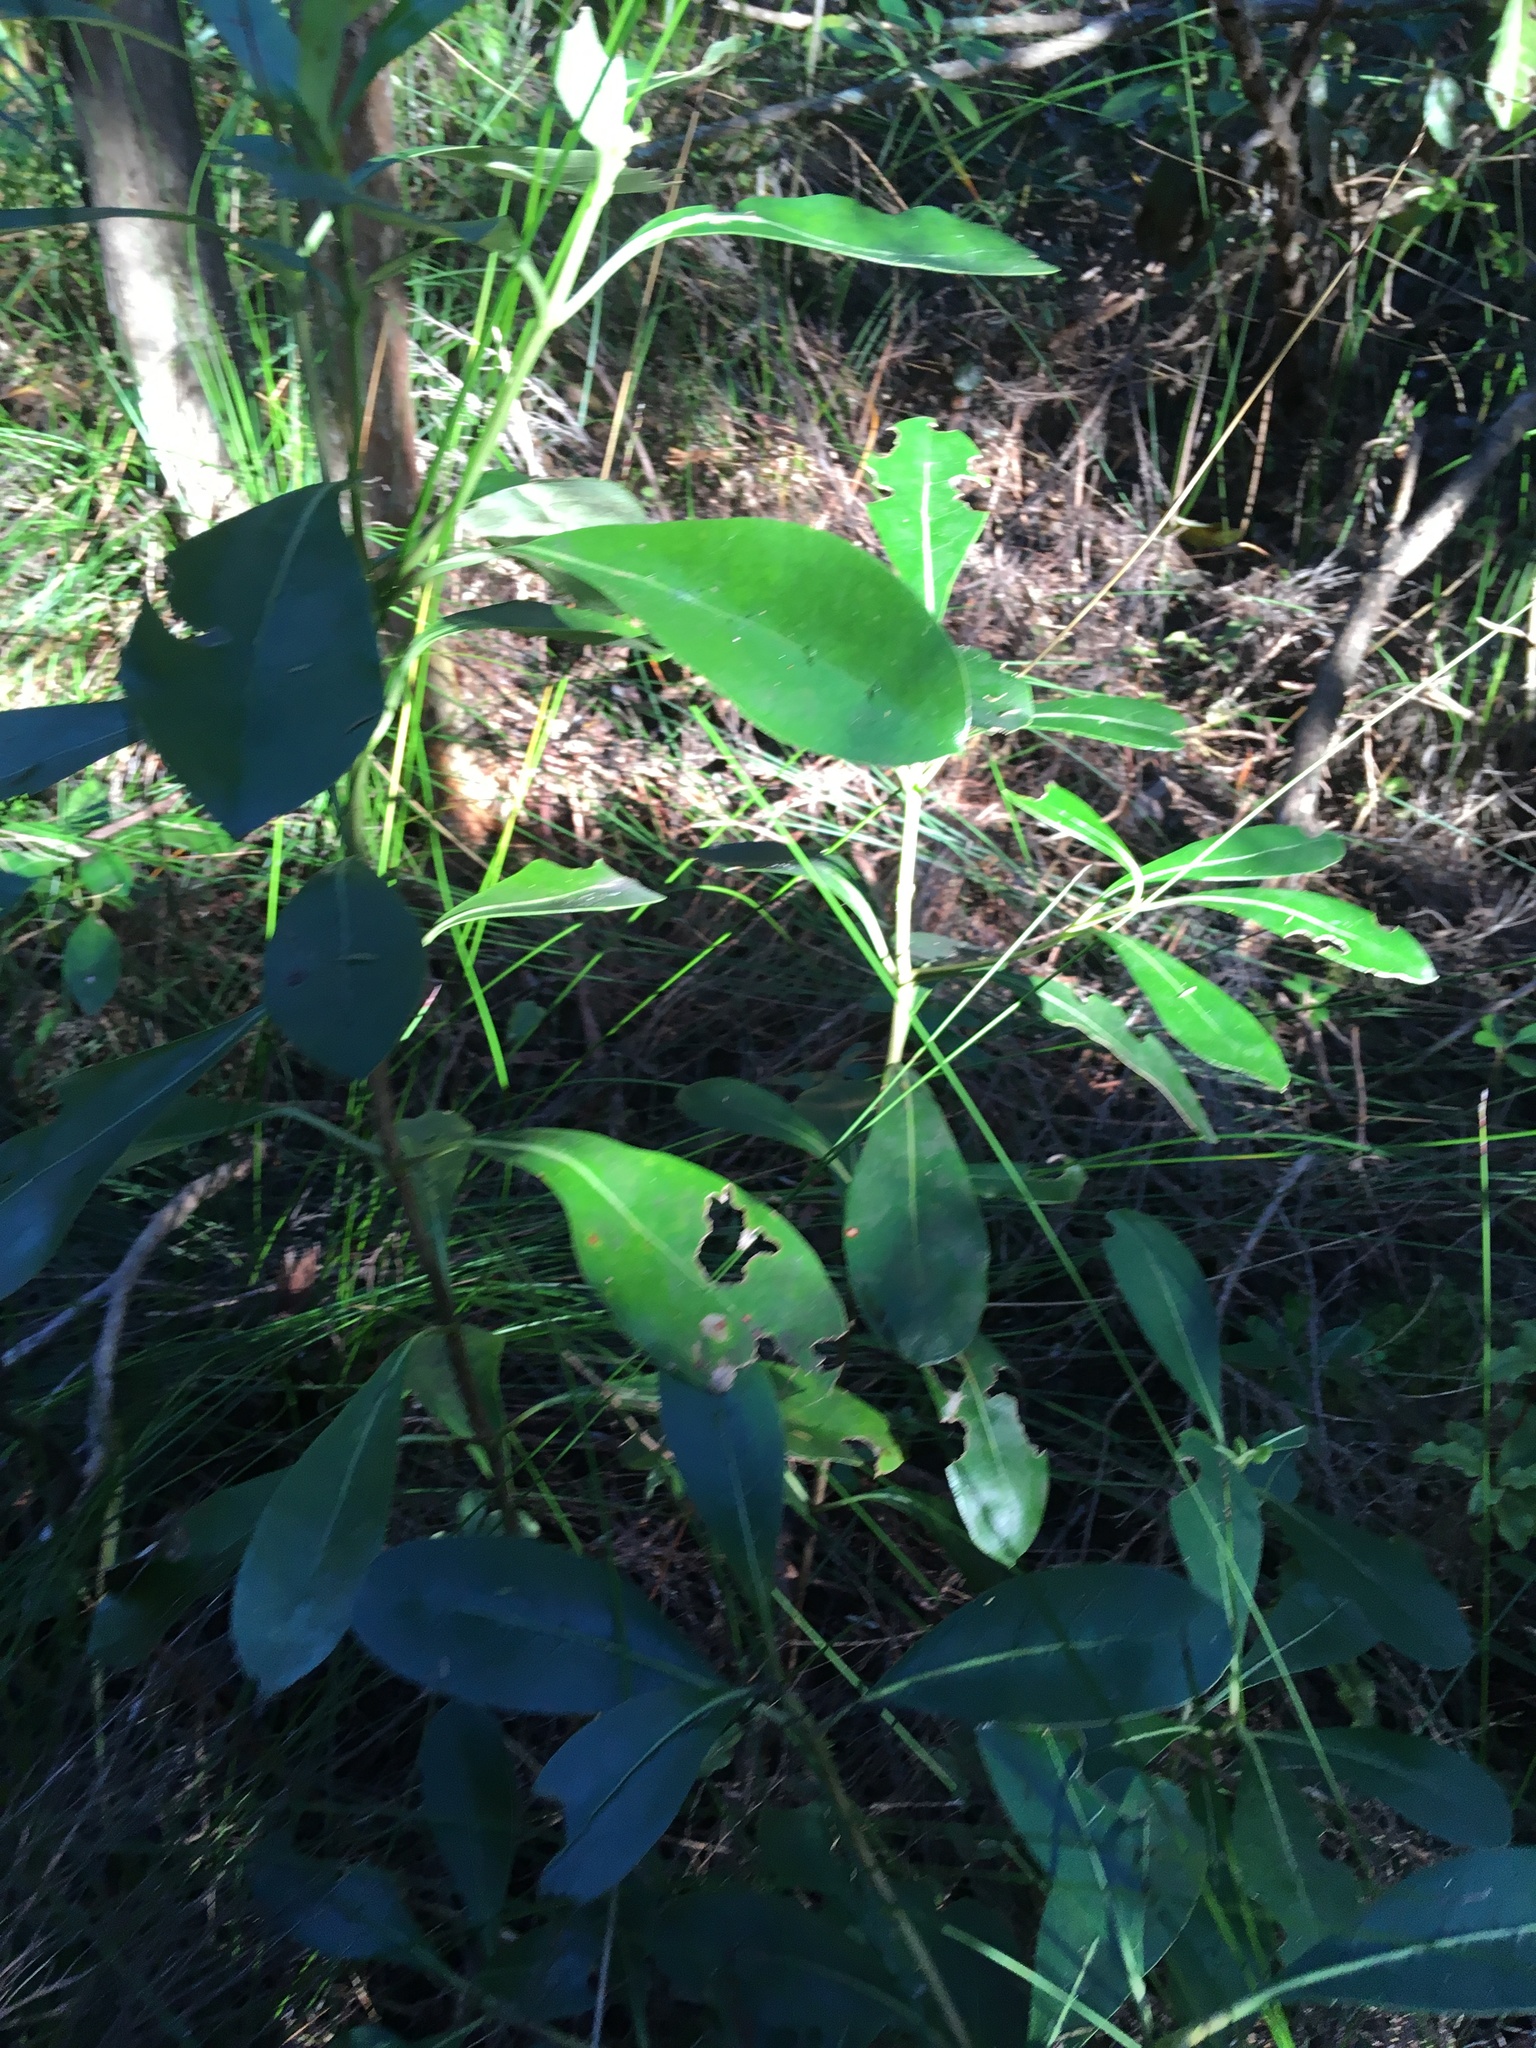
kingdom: Plantae
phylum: Tracheophyta
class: Magnoliopsida
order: Gentianales
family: Rubiaceae
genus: Coprosma
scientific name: Coprosma lucida
